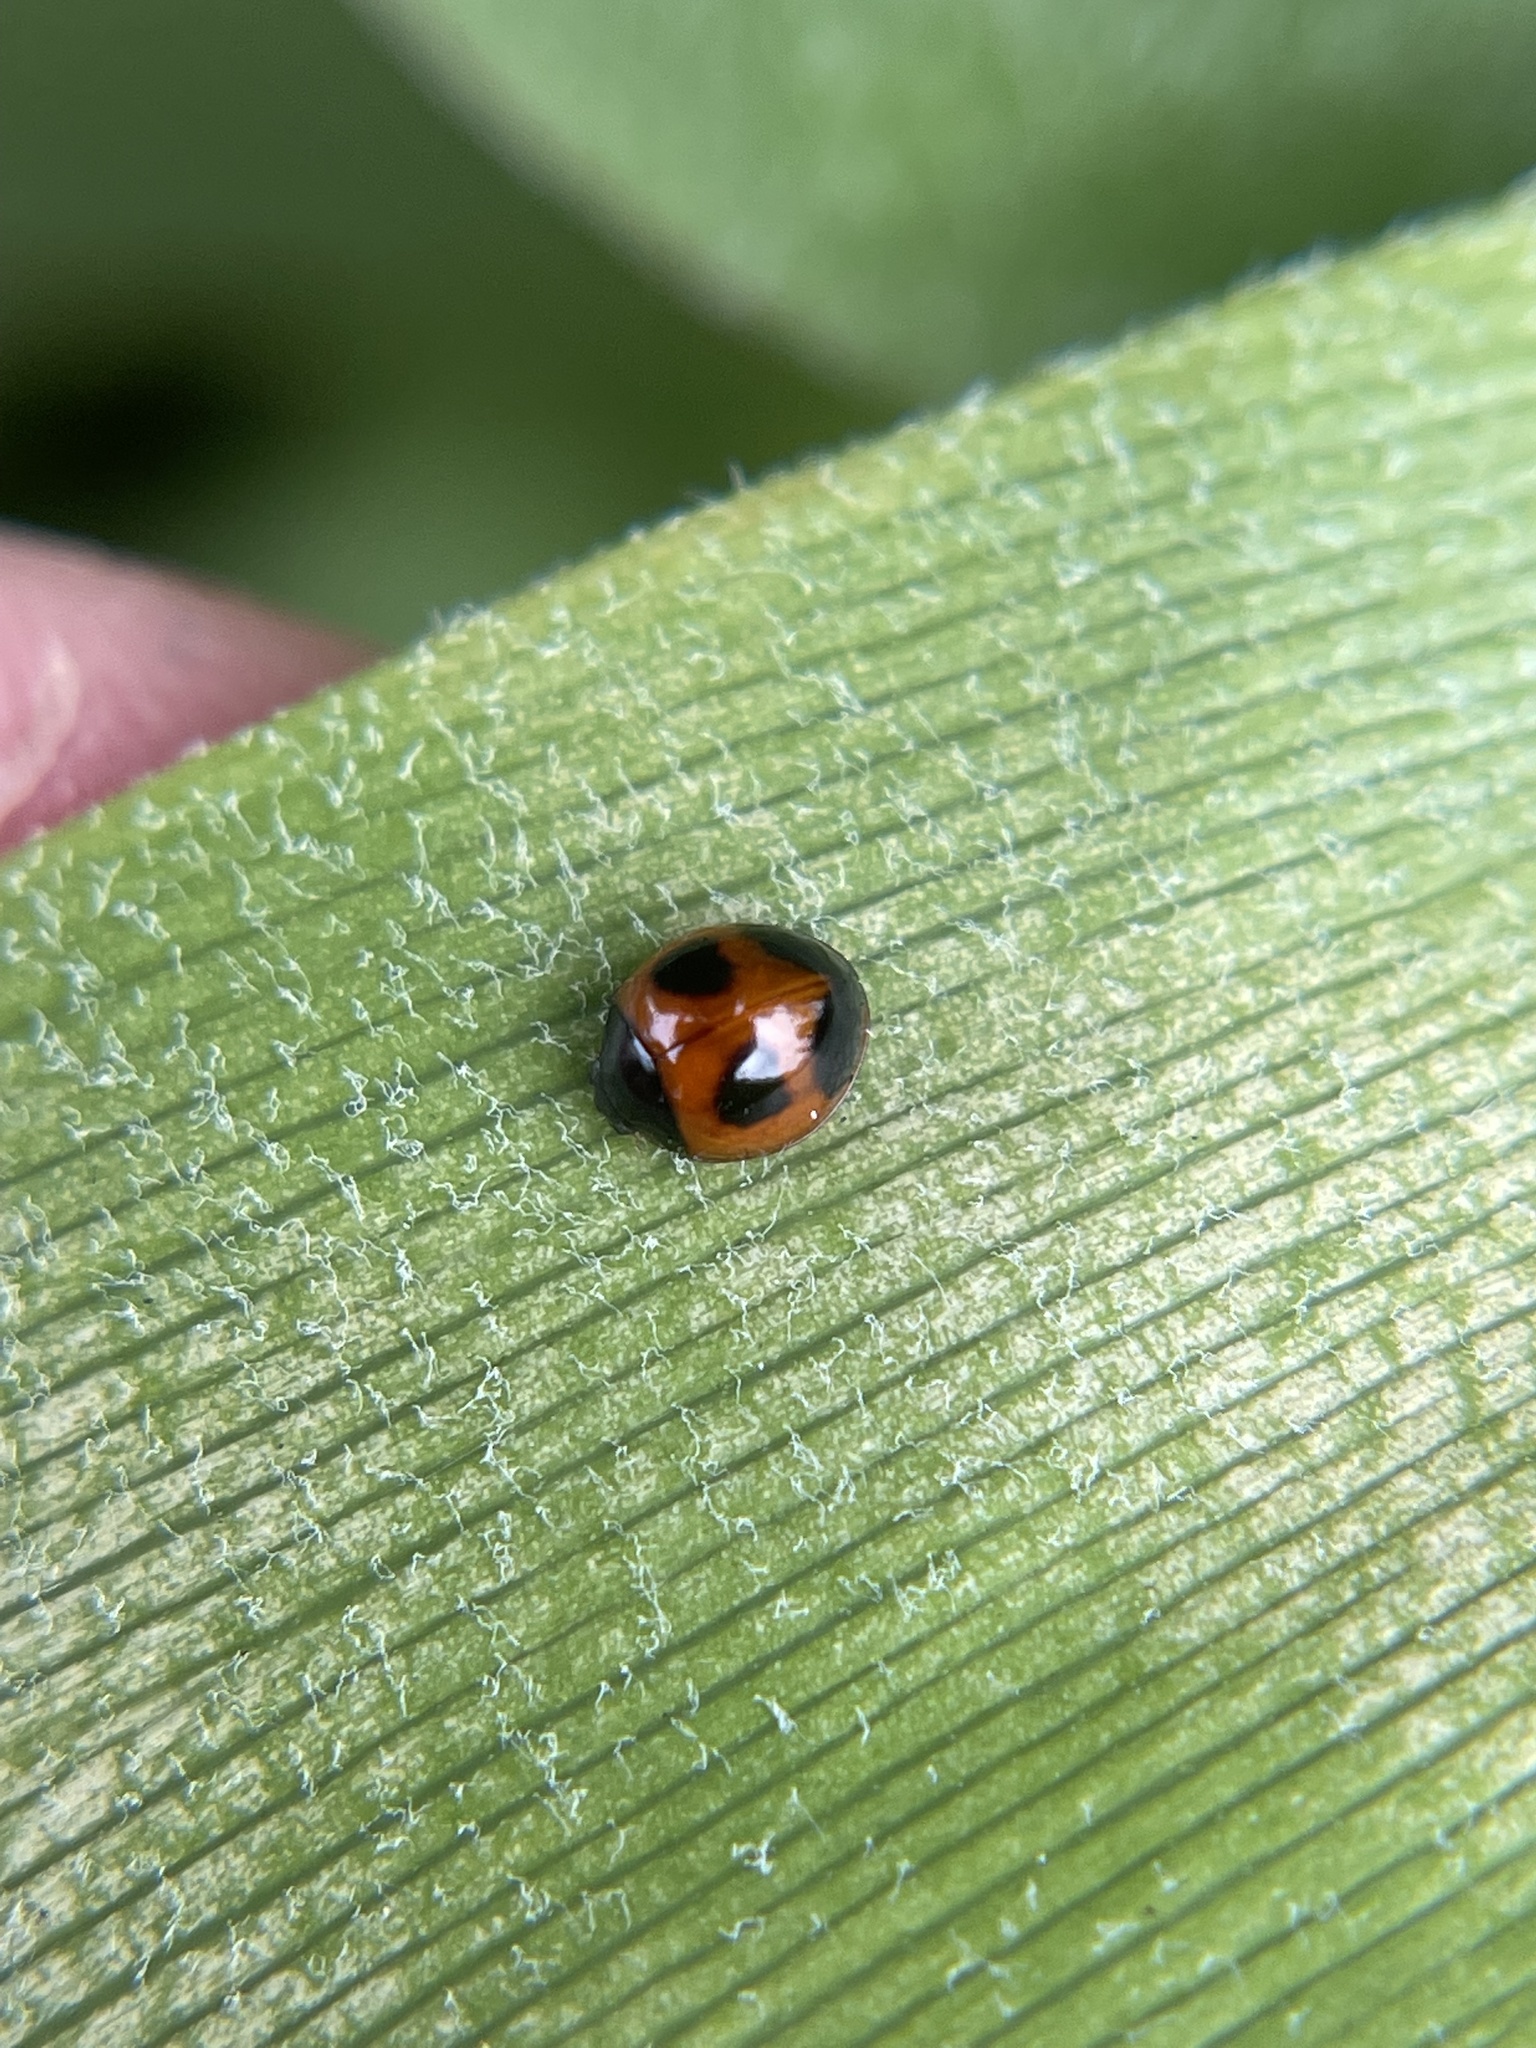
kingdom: Animalia
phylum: Arthropoda
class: Insecta
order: Coleoptera
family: Coccinellidae
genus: Exochomus
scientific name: Exochomus childreni
